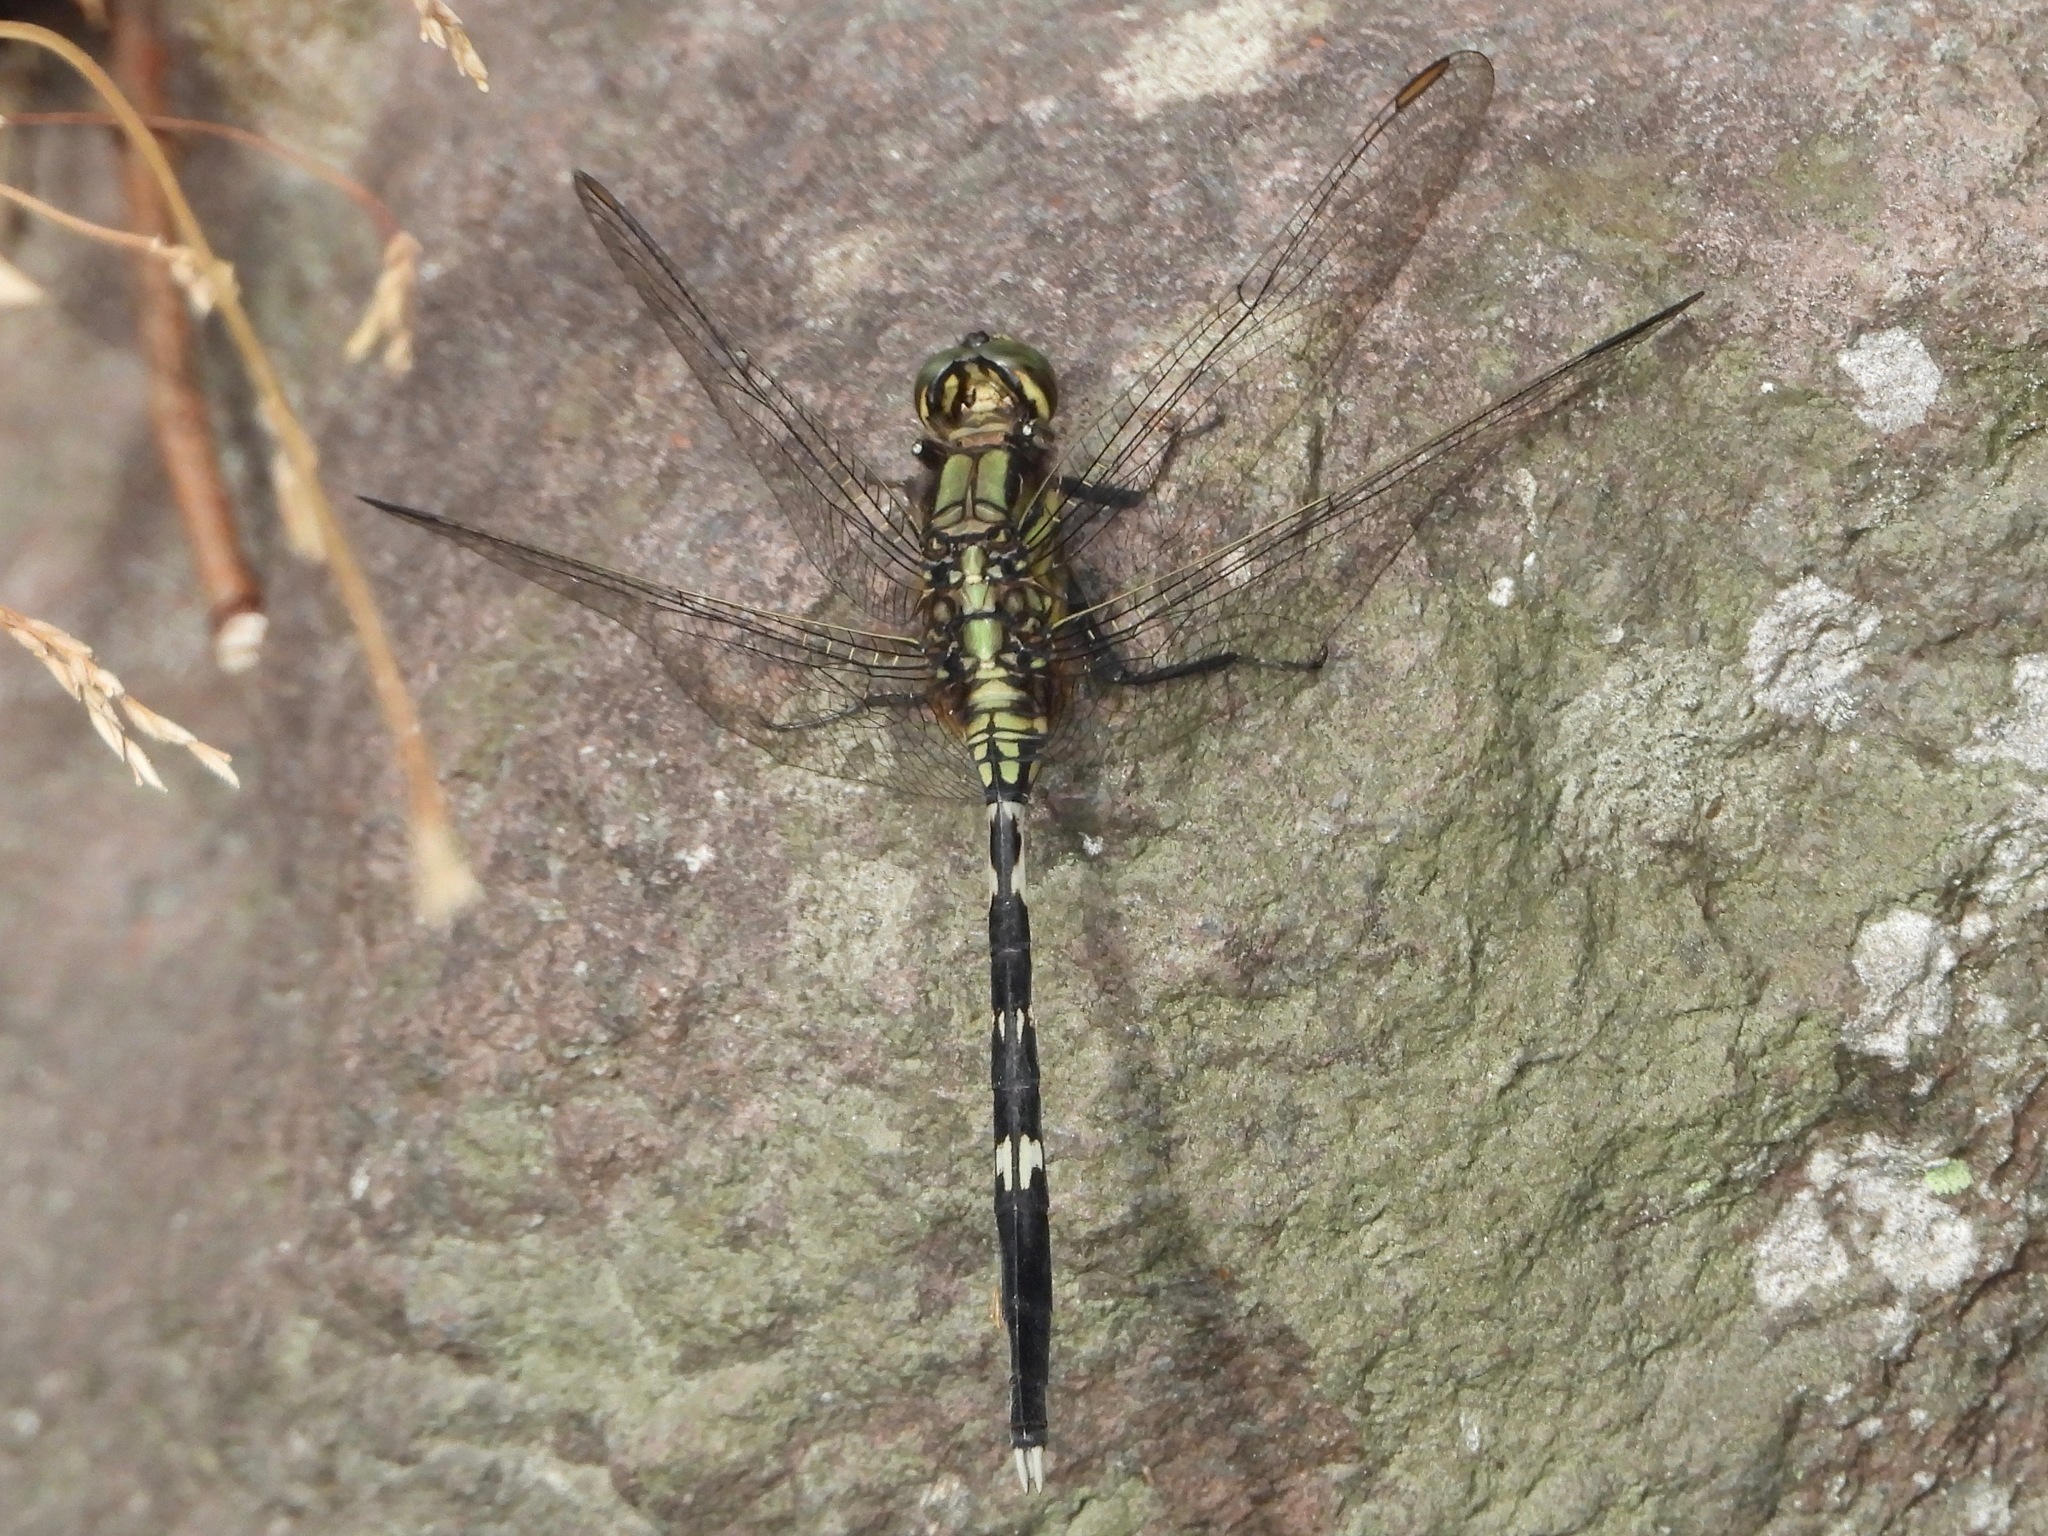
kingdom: Animalia
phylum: Arthropoda
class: Insecta
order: Odonata
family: Libellulidae
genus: Orthetrum
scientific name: Orthetrum sabina
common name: Slender skimmer
